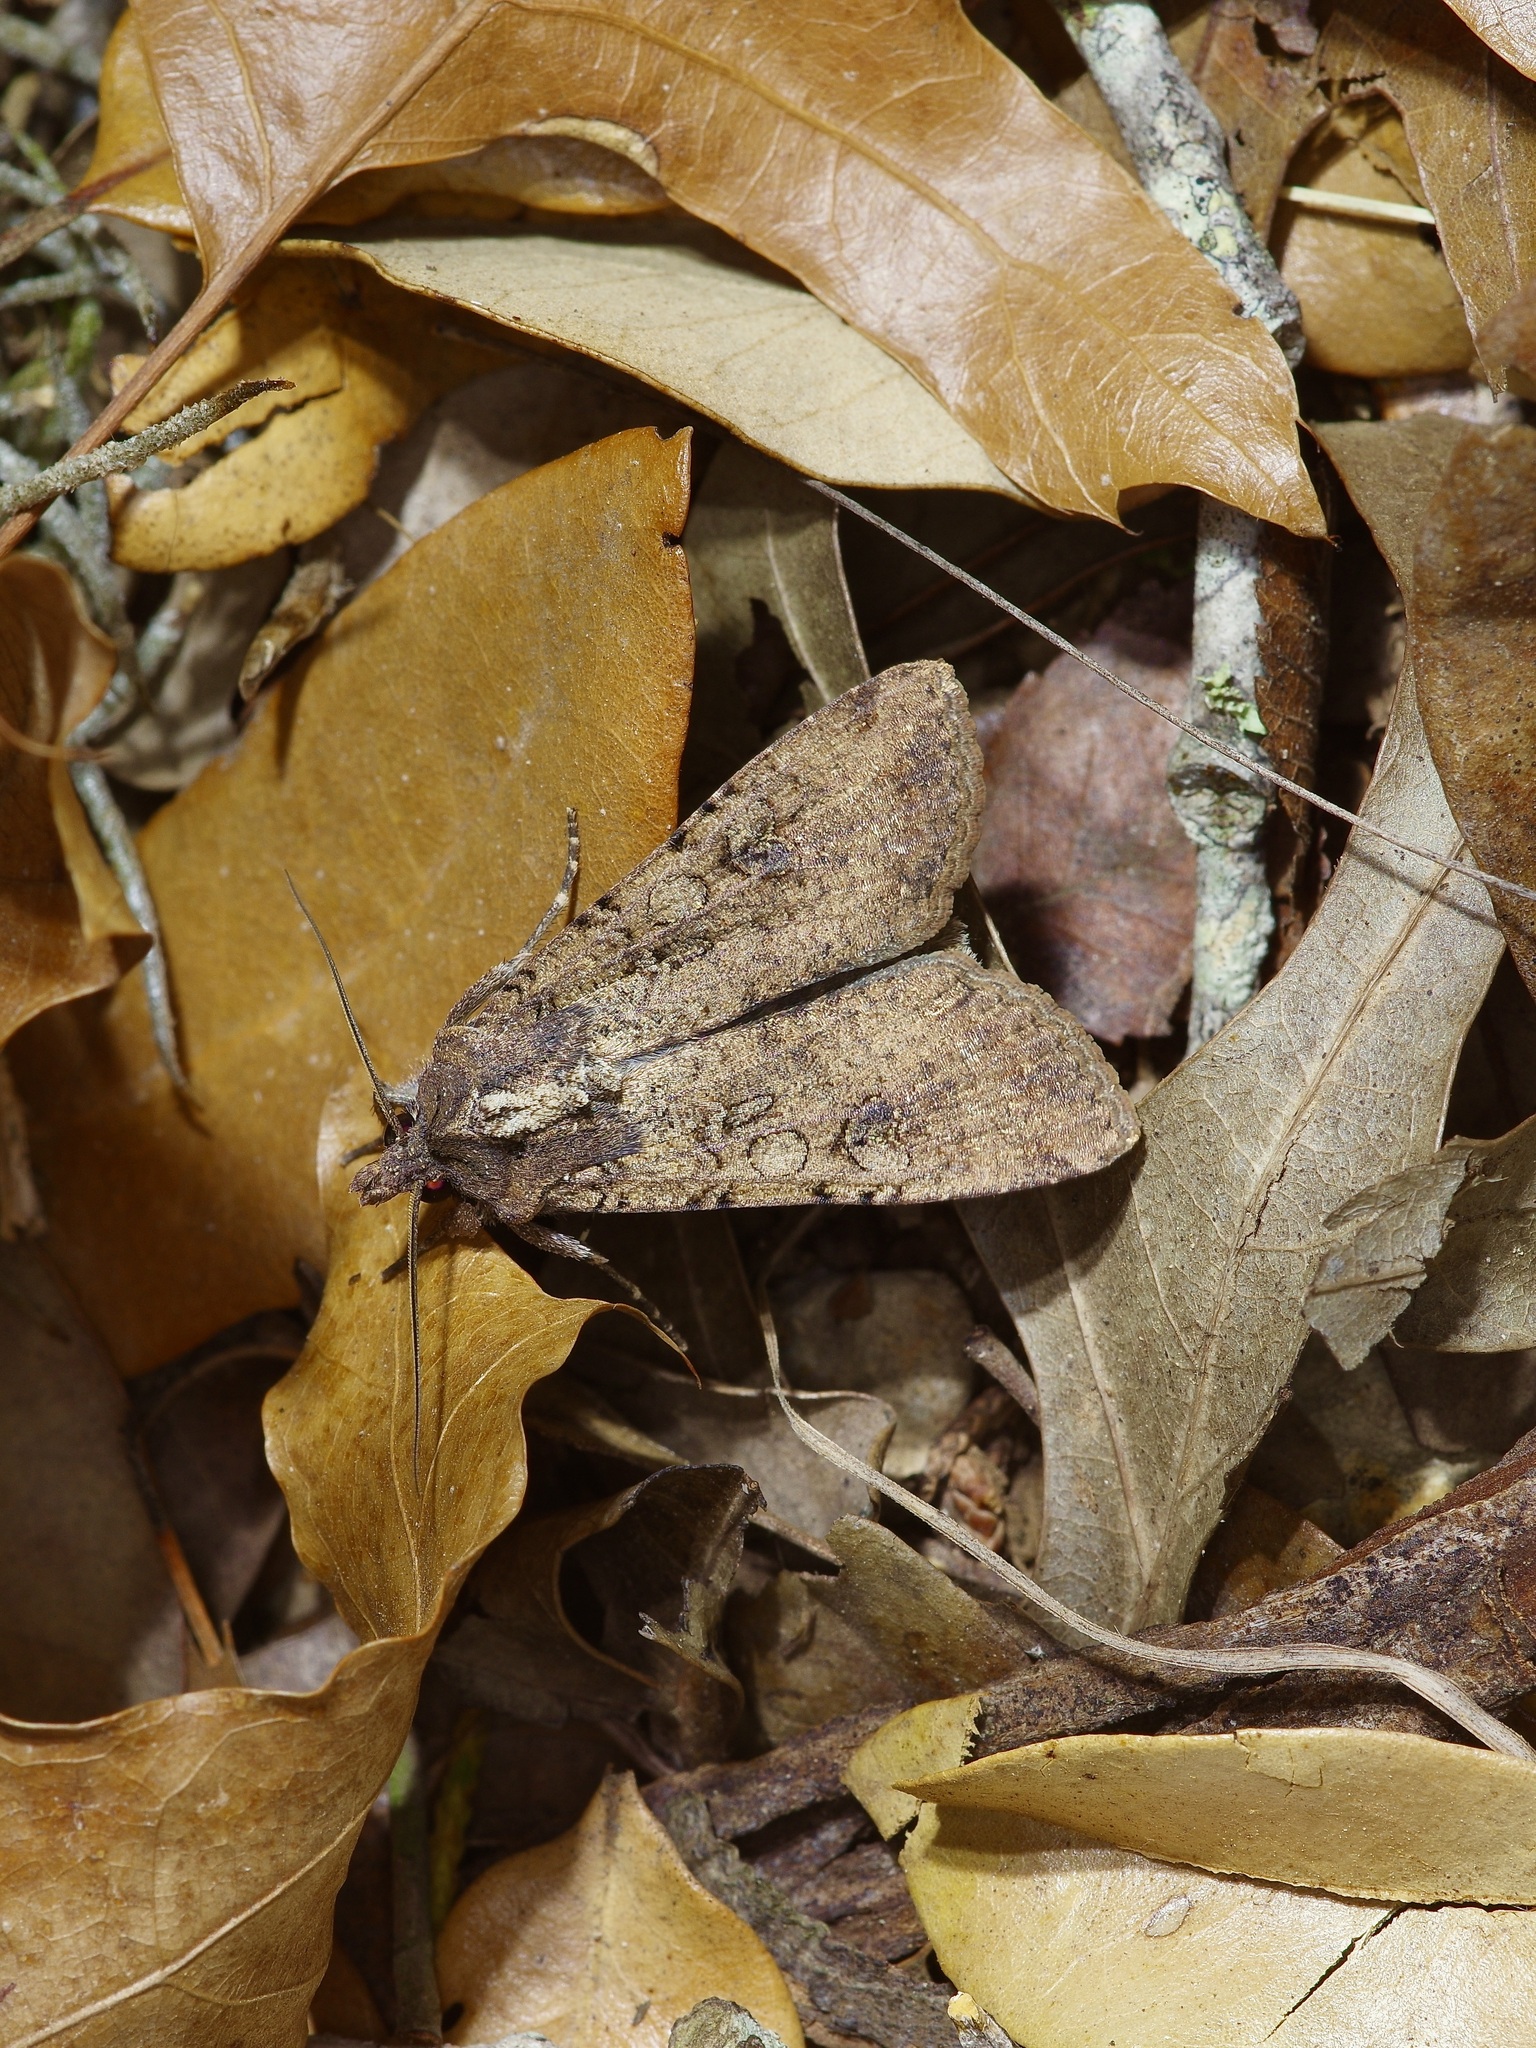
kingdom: Animalia
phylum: Arthropoda
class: Insecta
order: Lepidoptera
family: Noctuidae
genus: Peridroma
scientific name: Peridroma saucia
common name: Pearly underwing
